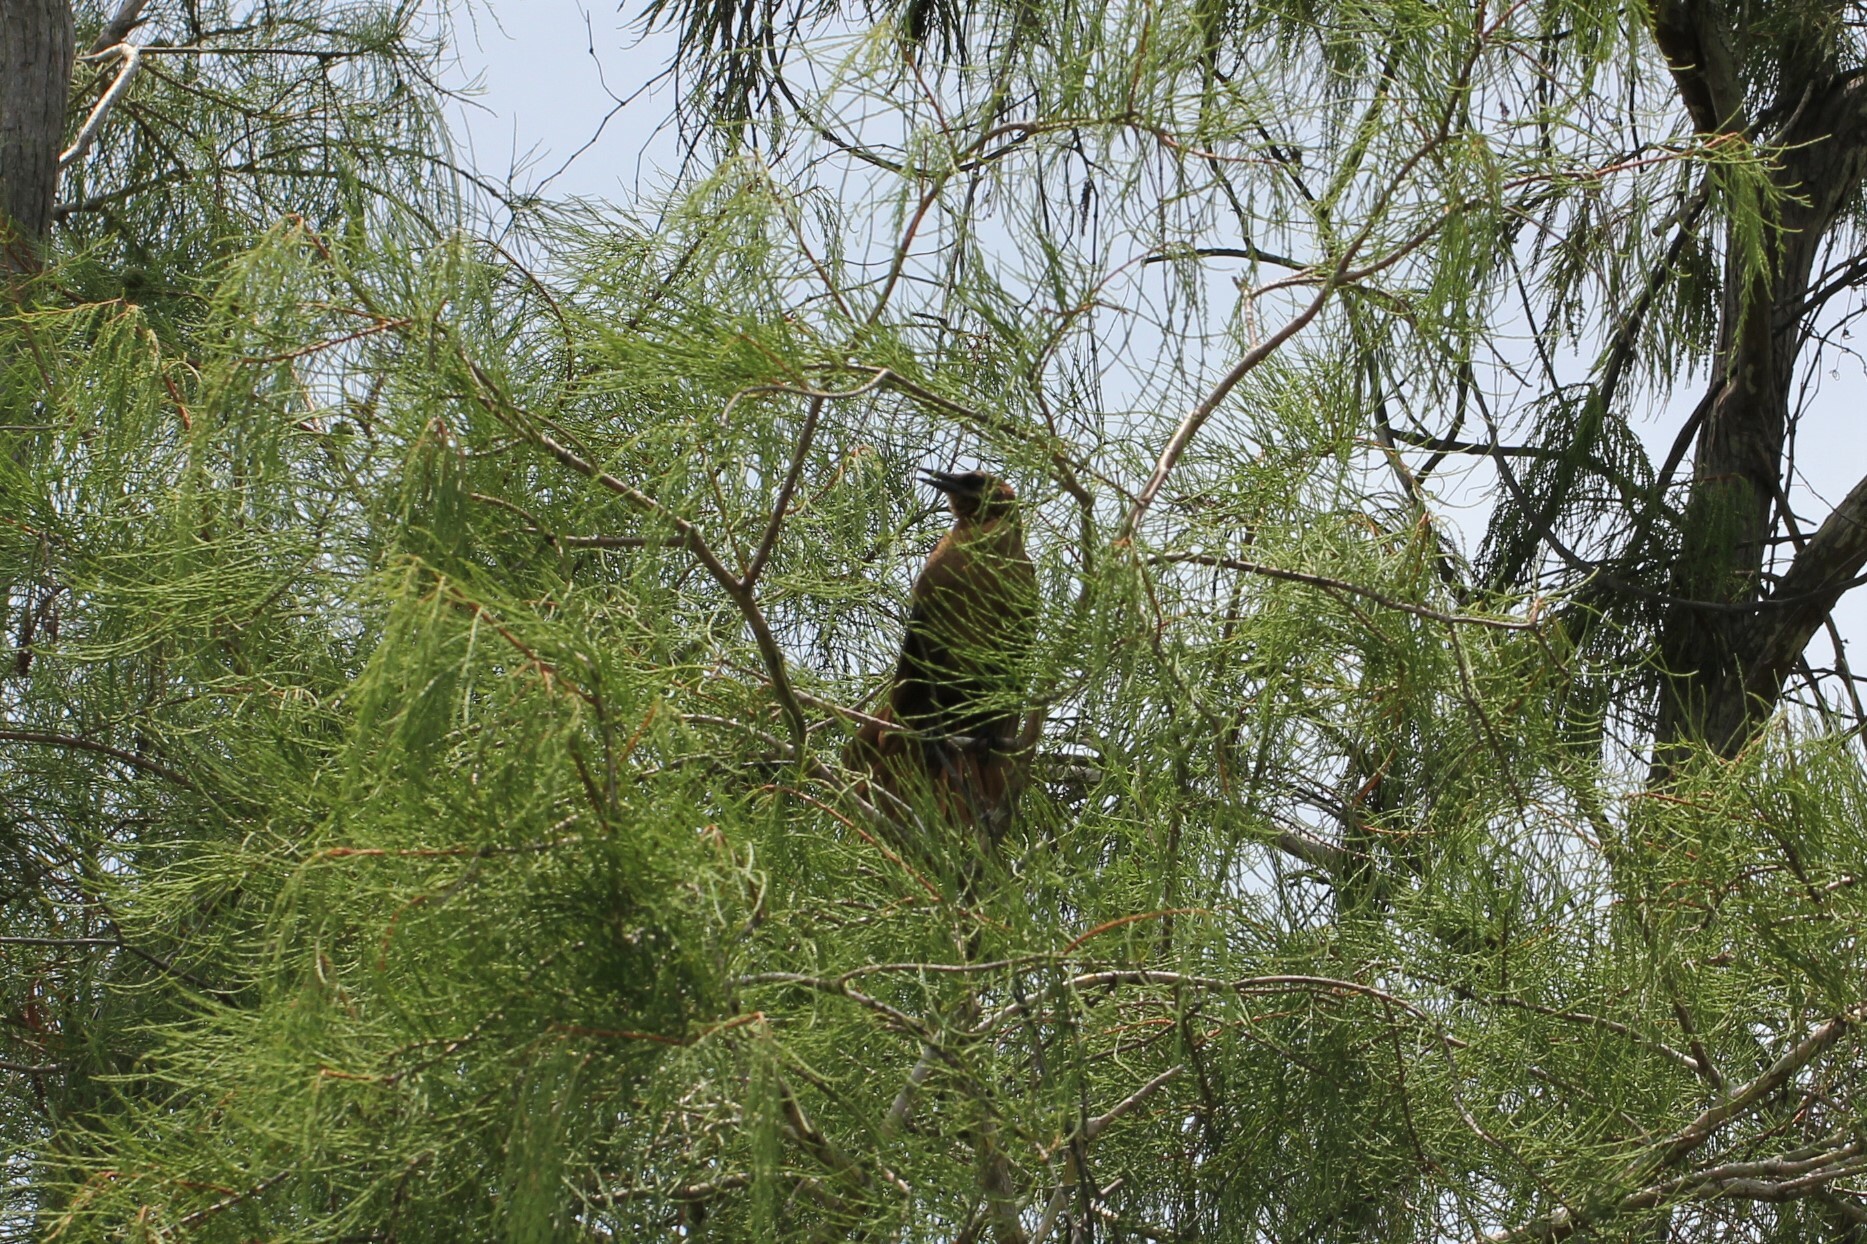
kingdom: Animalia
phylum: Chordata
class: Aves
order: Passeriformes
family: Icteridae
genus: Quiscalus
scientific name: Quiscalus major
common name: Boat-tailed grackle
